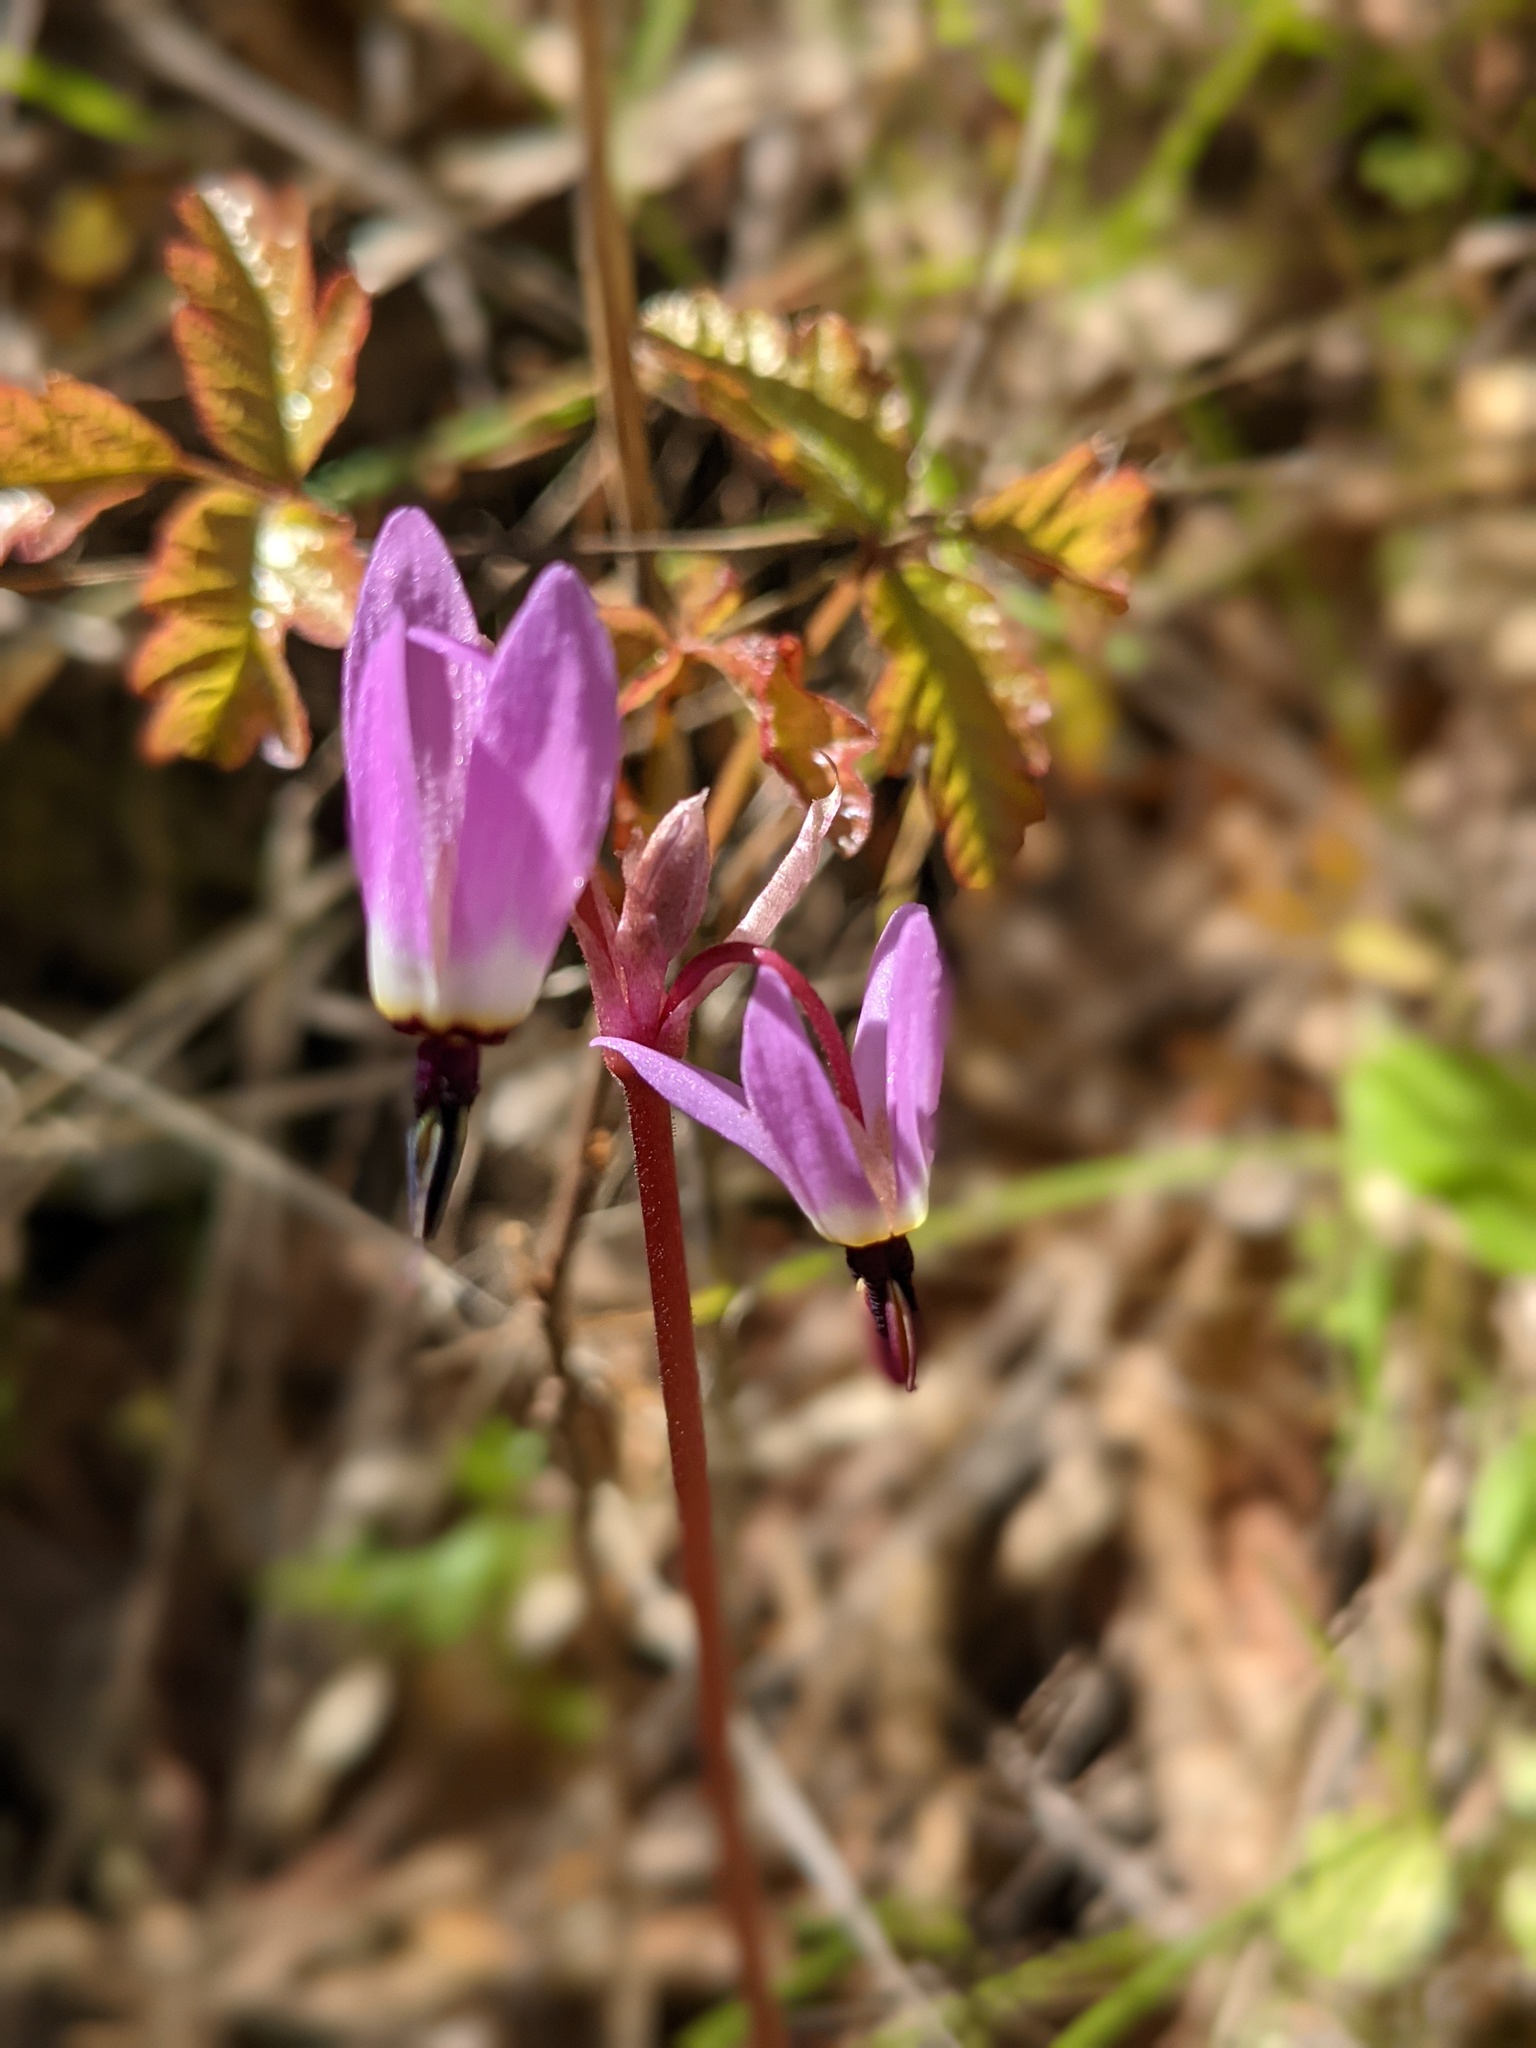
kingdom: Plantae
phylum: Tracheophyta
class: Magnoliopsida
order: Ericales
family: Primulaceae
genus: Dodecatheon
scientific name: Dodecatheon hendersonii
